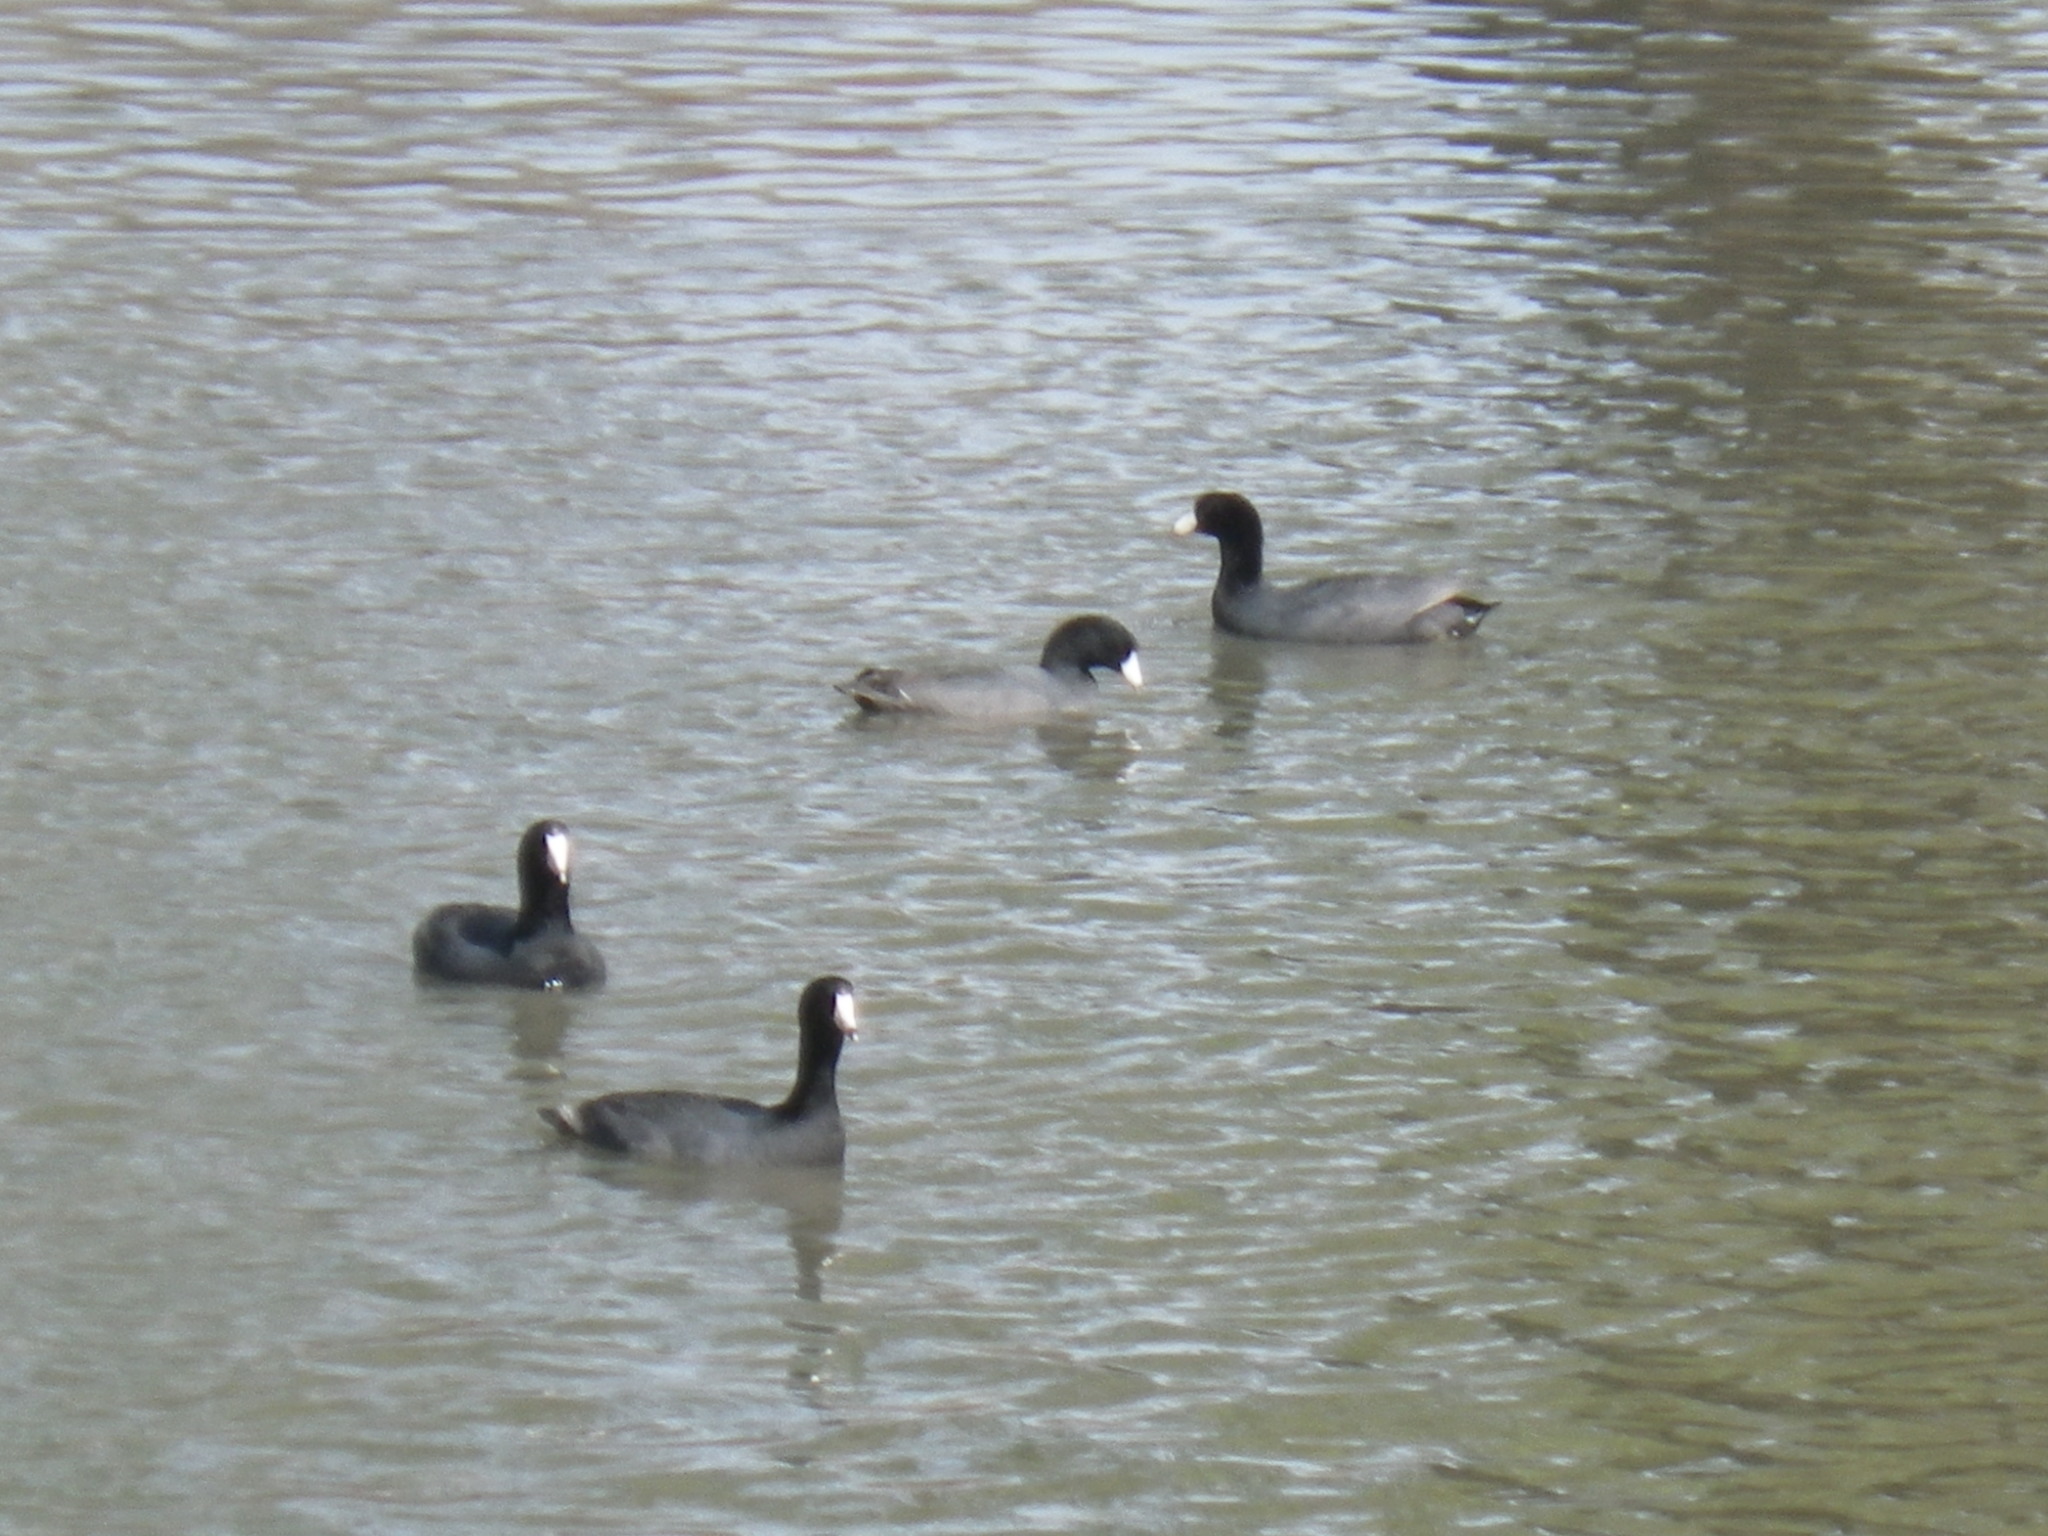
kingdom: Animalia
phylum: Chordata
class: Aves
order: Gruiformes
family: Rallidae
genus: Fulica
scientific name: Fulica americana
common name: American coot
